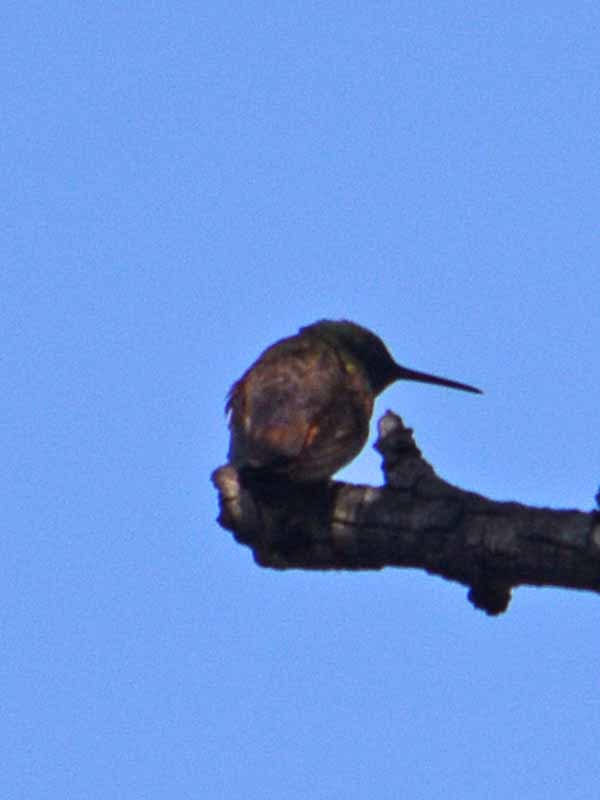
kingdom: Animalia
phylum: Chordata
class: Aves
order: Apodiformes
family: Trochilidae
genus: Saucerottia
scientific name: Saucerottia beryllina
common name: Berylline hummingbird
